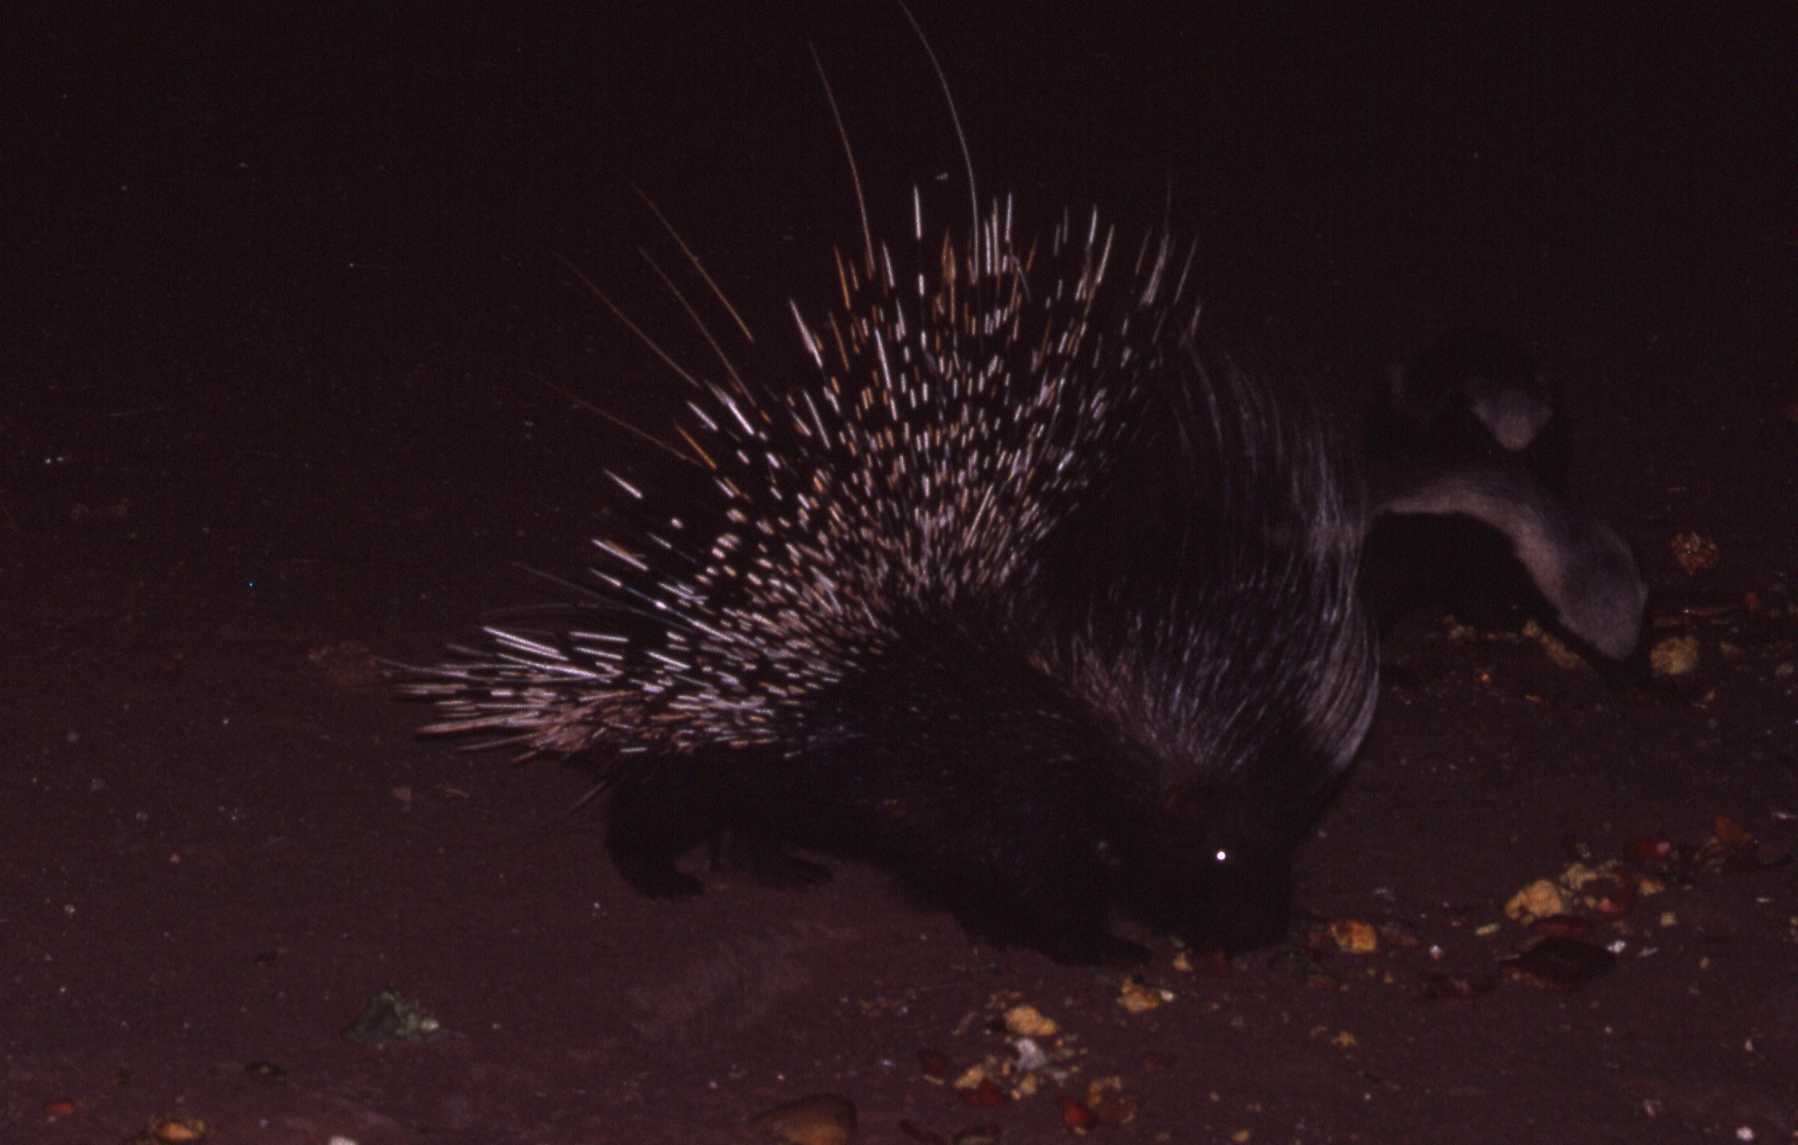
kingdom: Animalia
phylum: Chordata
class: Mammalia
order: Rodentia
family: Hystricidae
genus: Hystrix
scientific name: Hystrix africaeaustralis
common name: Cape porcupine
